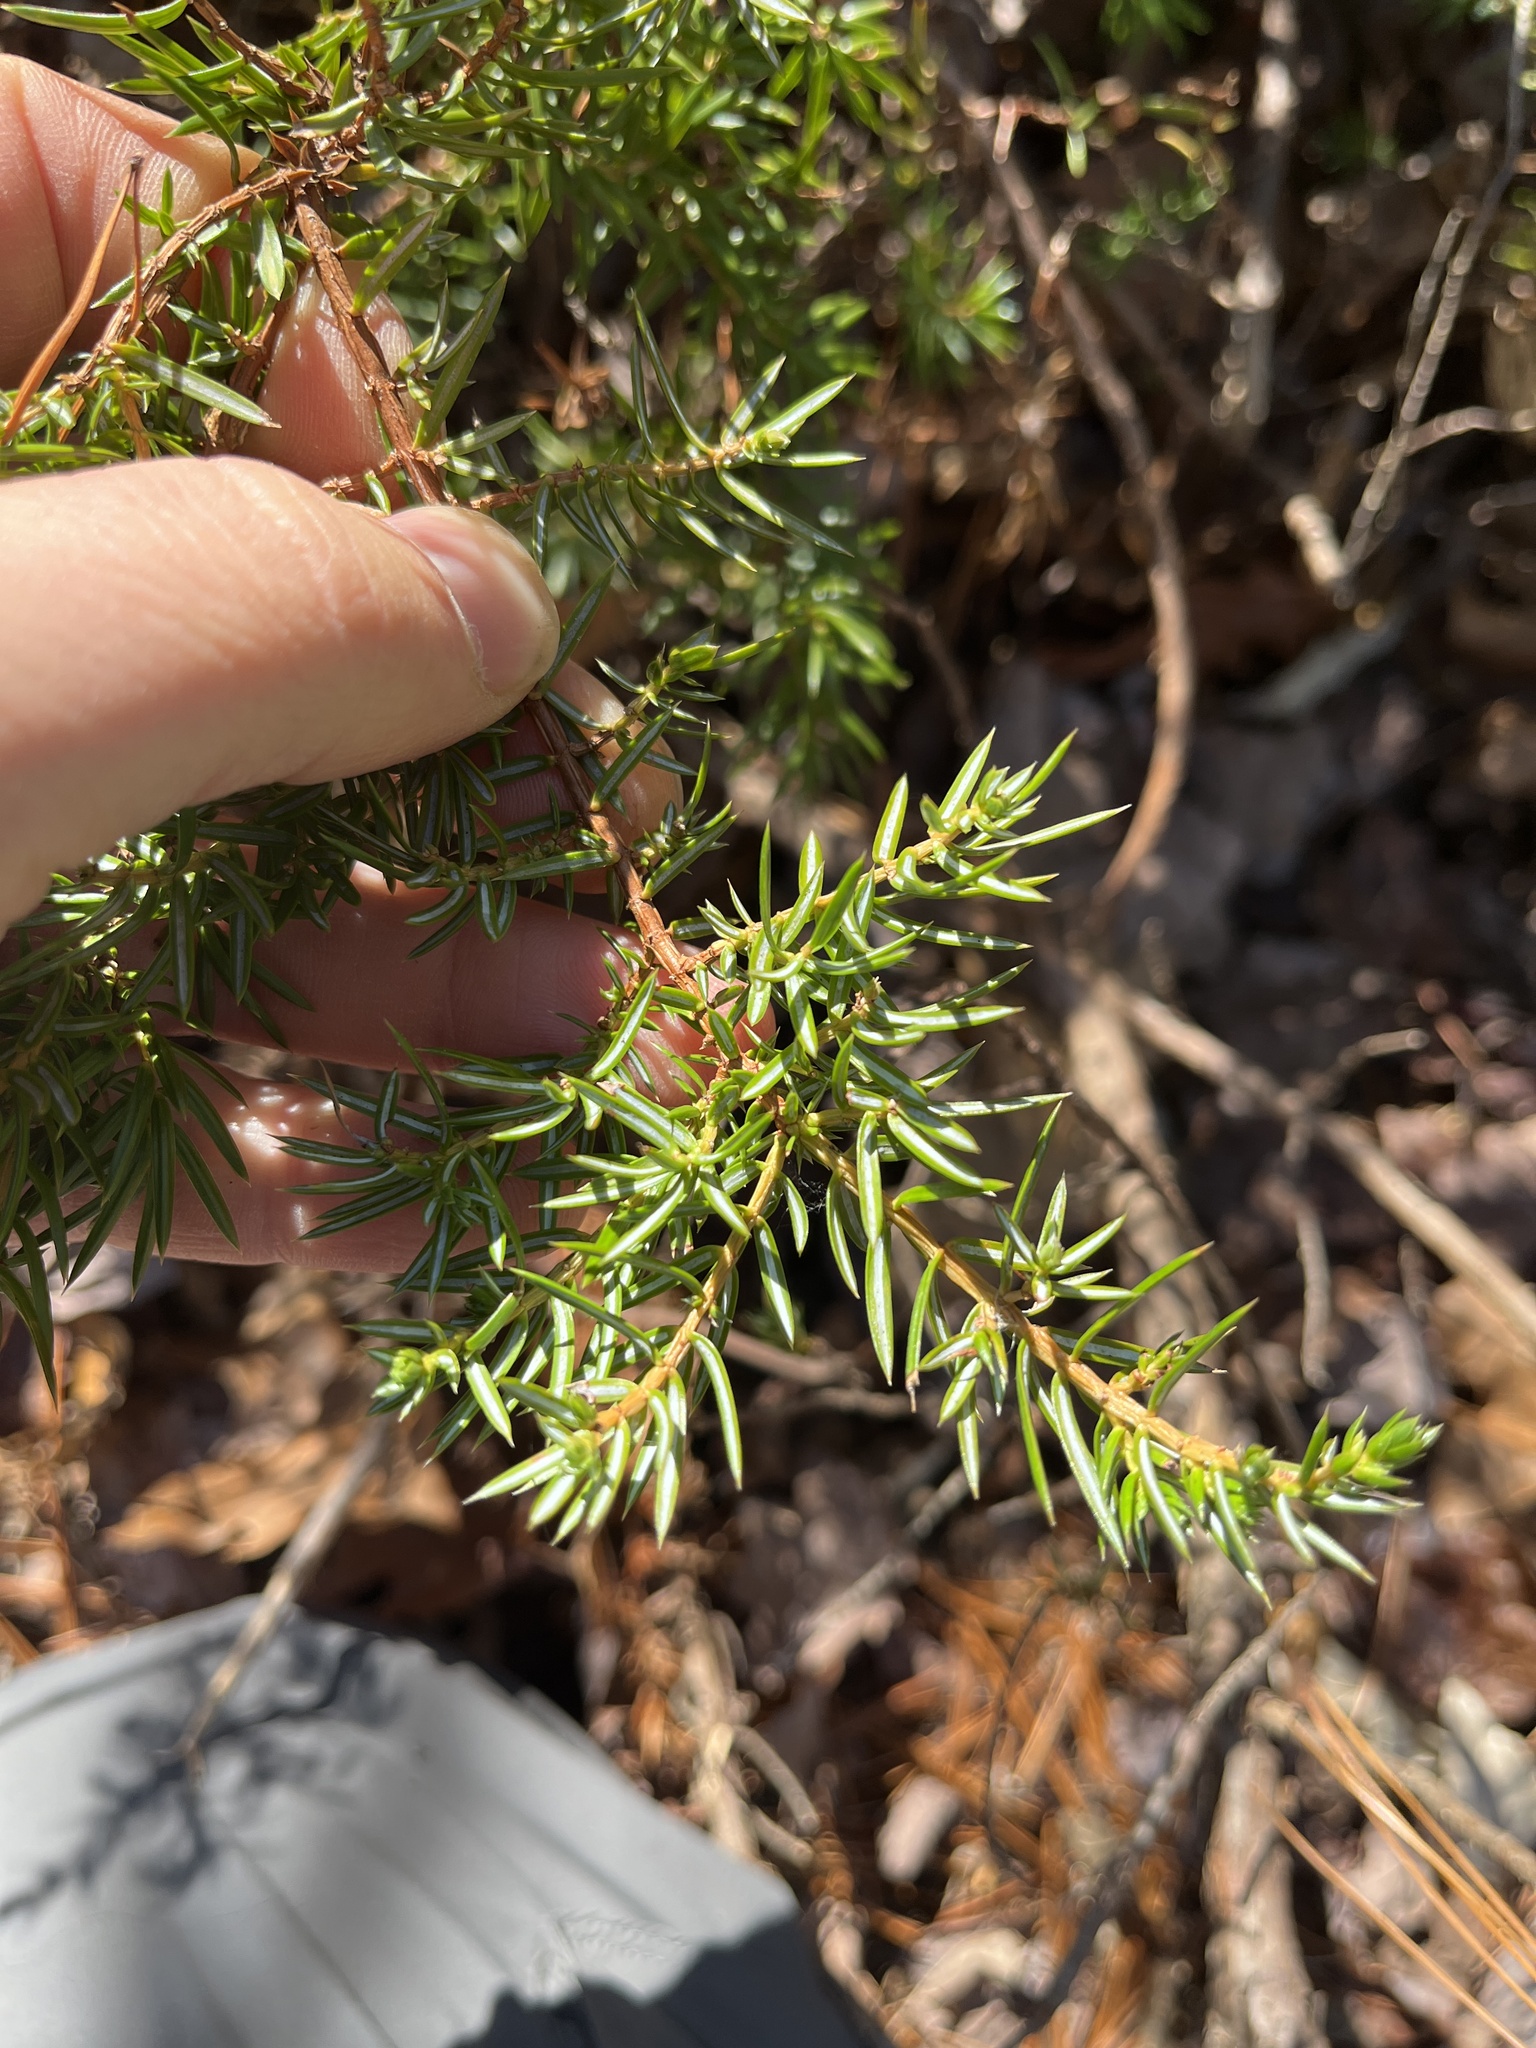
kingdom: Plantae
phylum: Tracheophyta
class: Pinopsida
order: Pinales
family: Cupressaceae
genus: Juniperus
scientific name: Juniperus communis
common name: Common juniper
